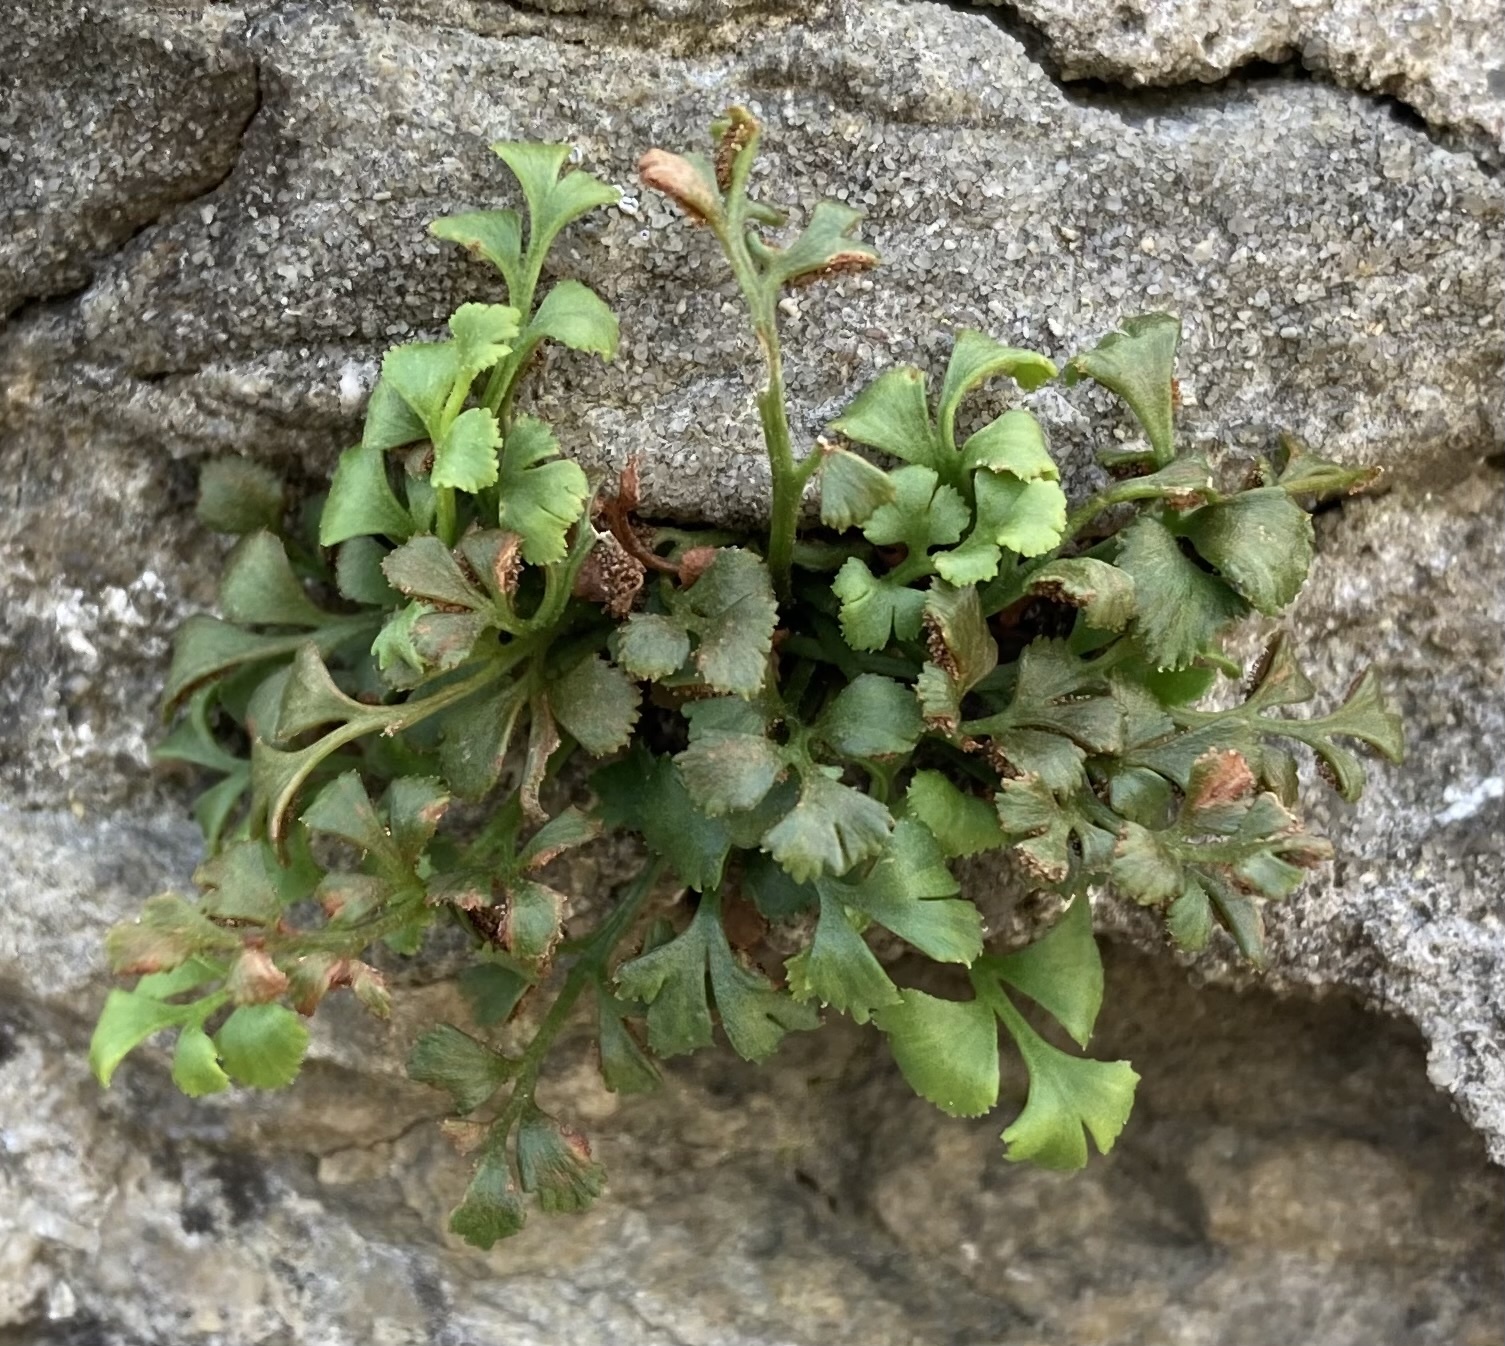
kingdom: Plantae
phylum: Tracheophyta
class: Polypodiopsida
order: Polypodiales
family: Aspleniaceae
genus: Asplenium
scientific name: Asplenium ruta-muraria
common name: Wall-rue
